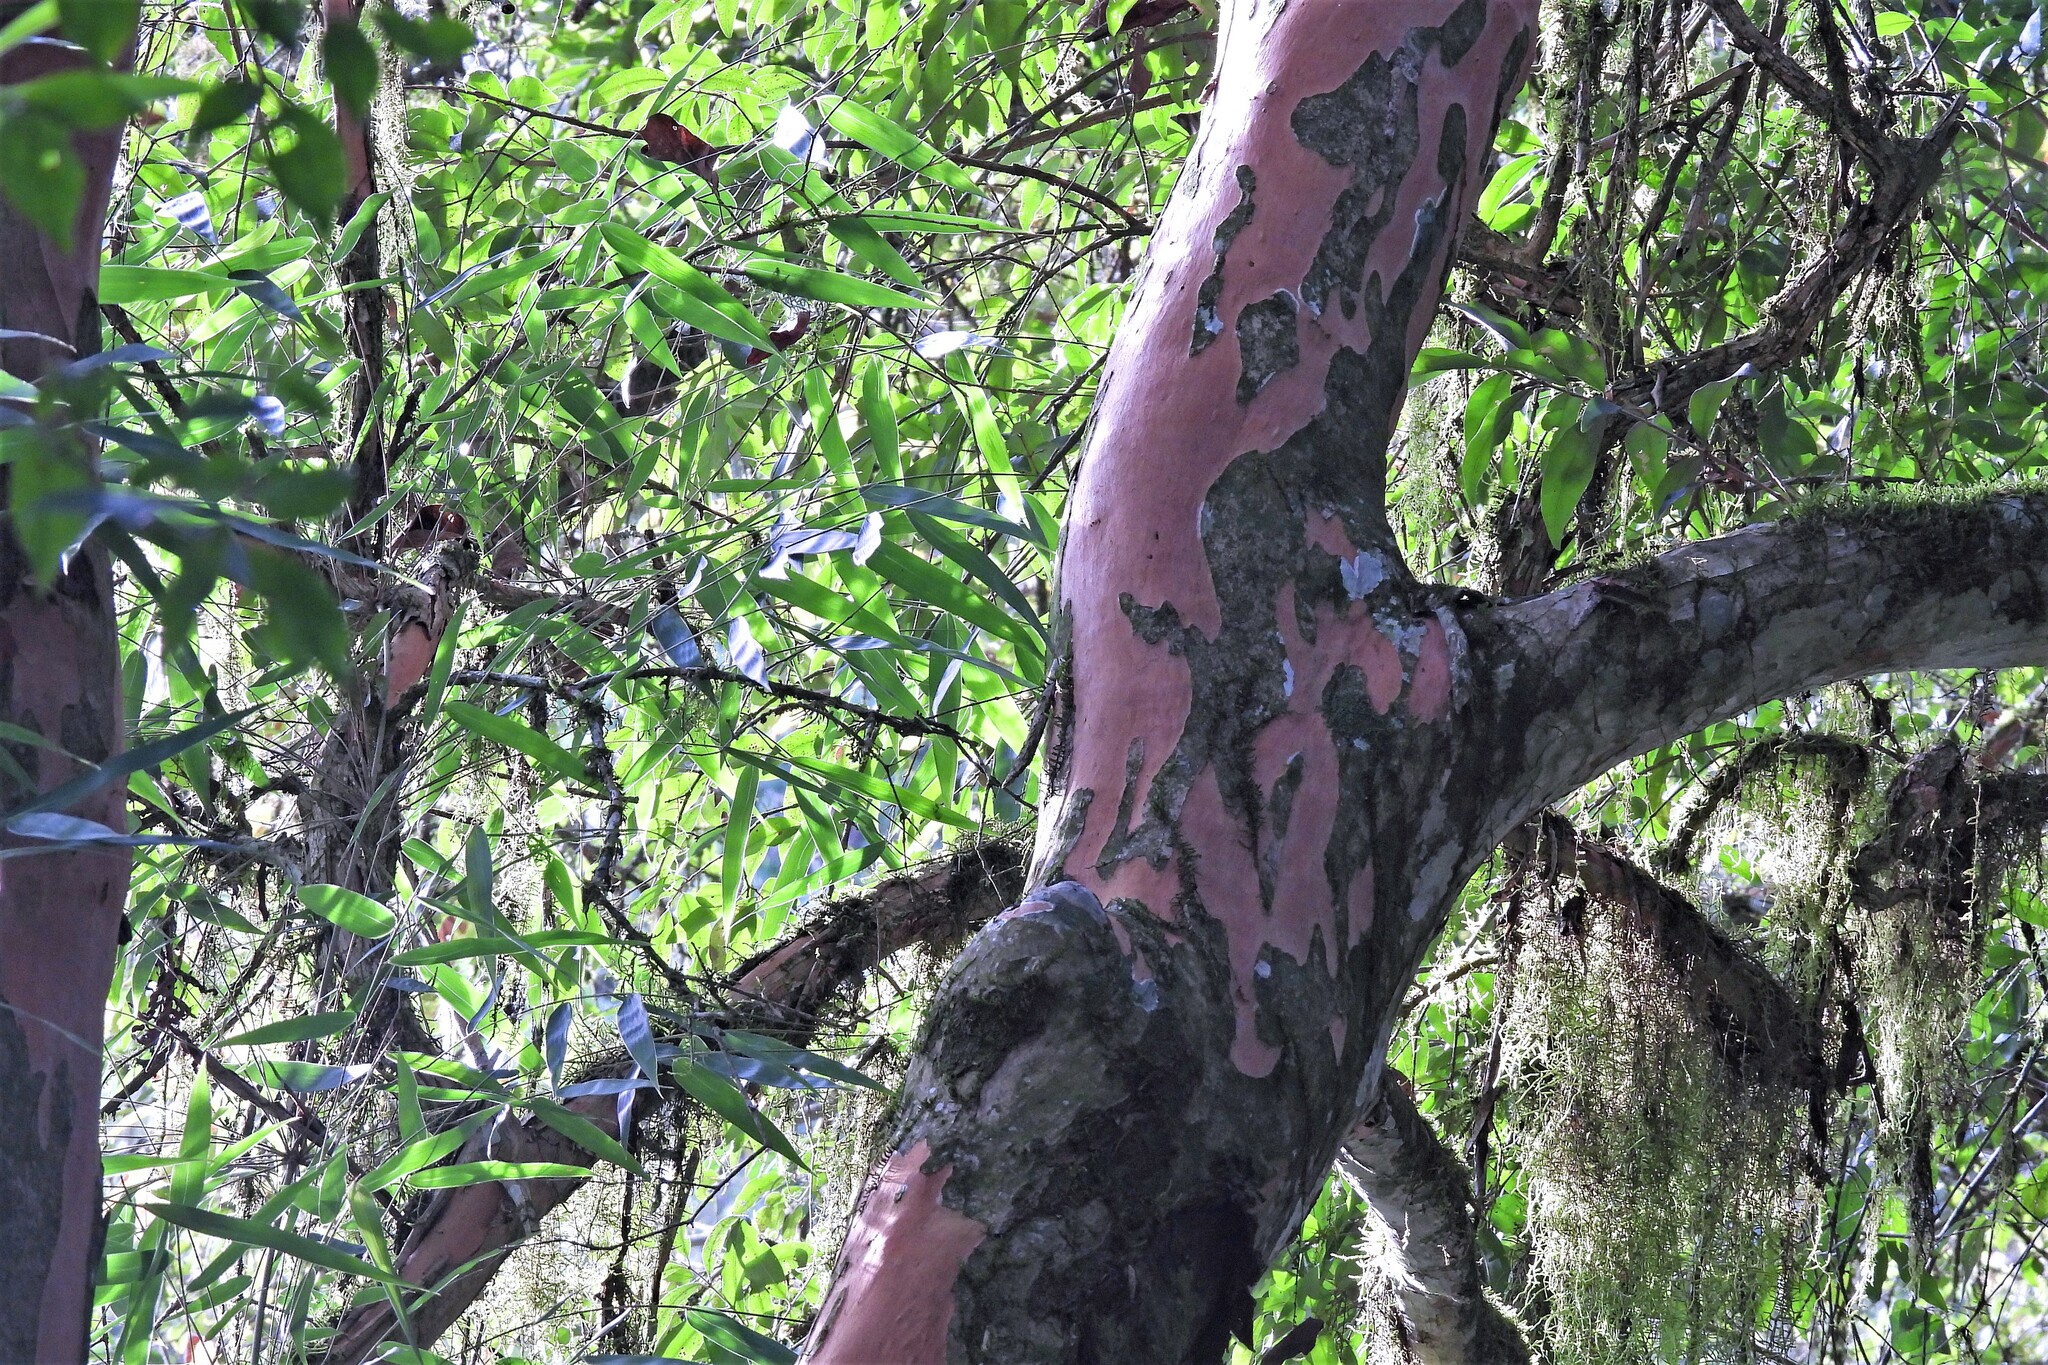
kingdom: Plantae
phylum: Tracheophyta
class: Magnoliopsida
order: Myrtales
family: Myrtaceae
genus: Eugenia
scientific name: Eugenia pyriformis
